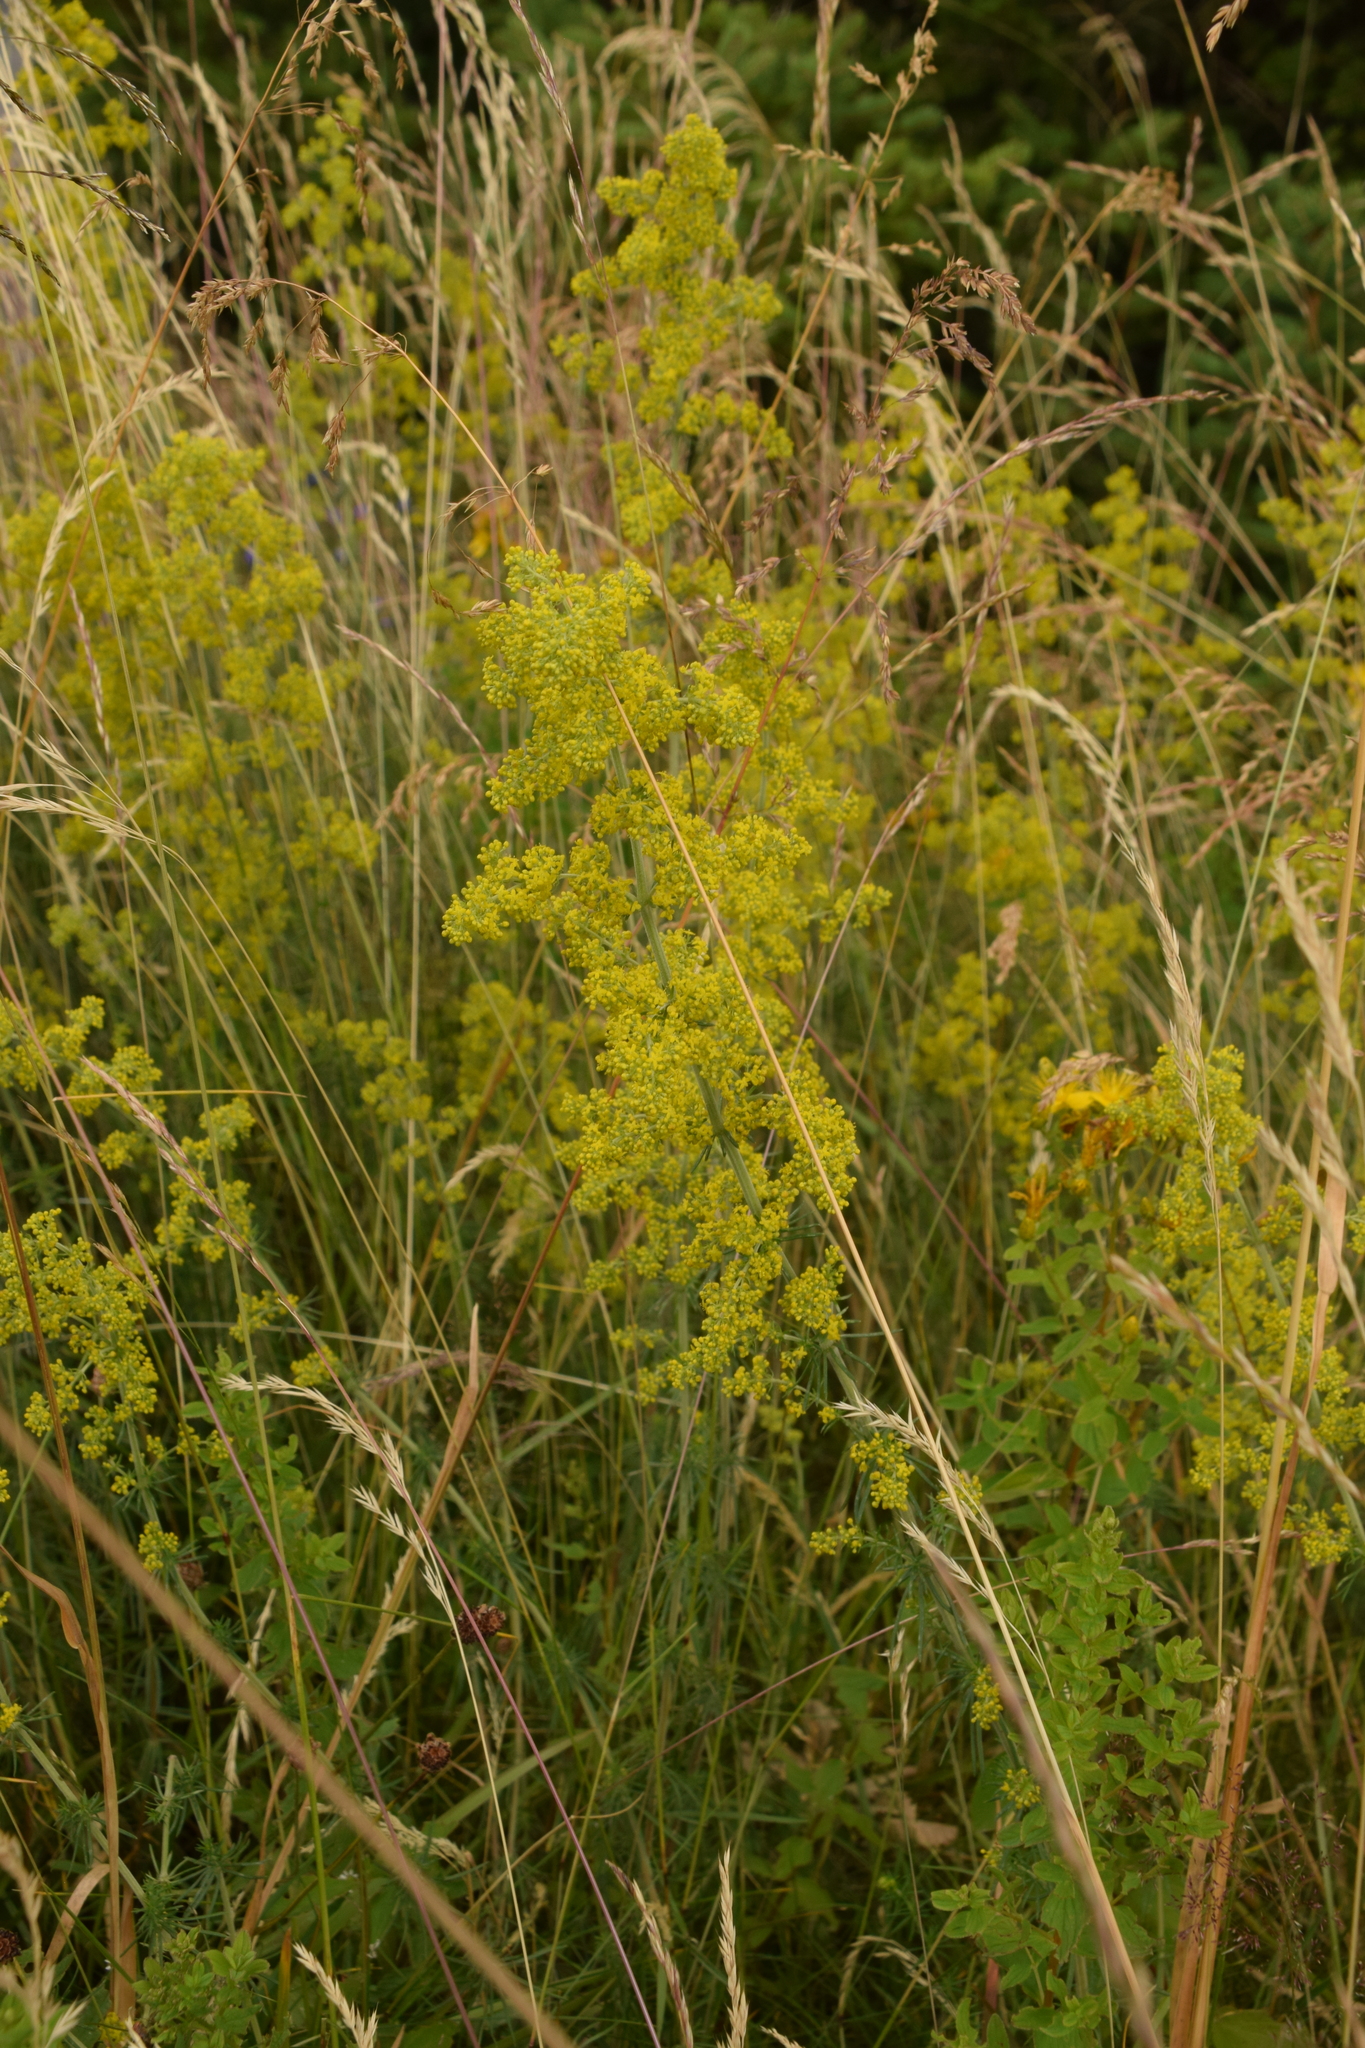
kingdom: Plantae
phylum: Tracheophyta
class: Magnoliopsida
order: Gentianales
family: Rubiaceae
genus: Galium
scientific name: Galium verum
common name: Lady's bedstraw
